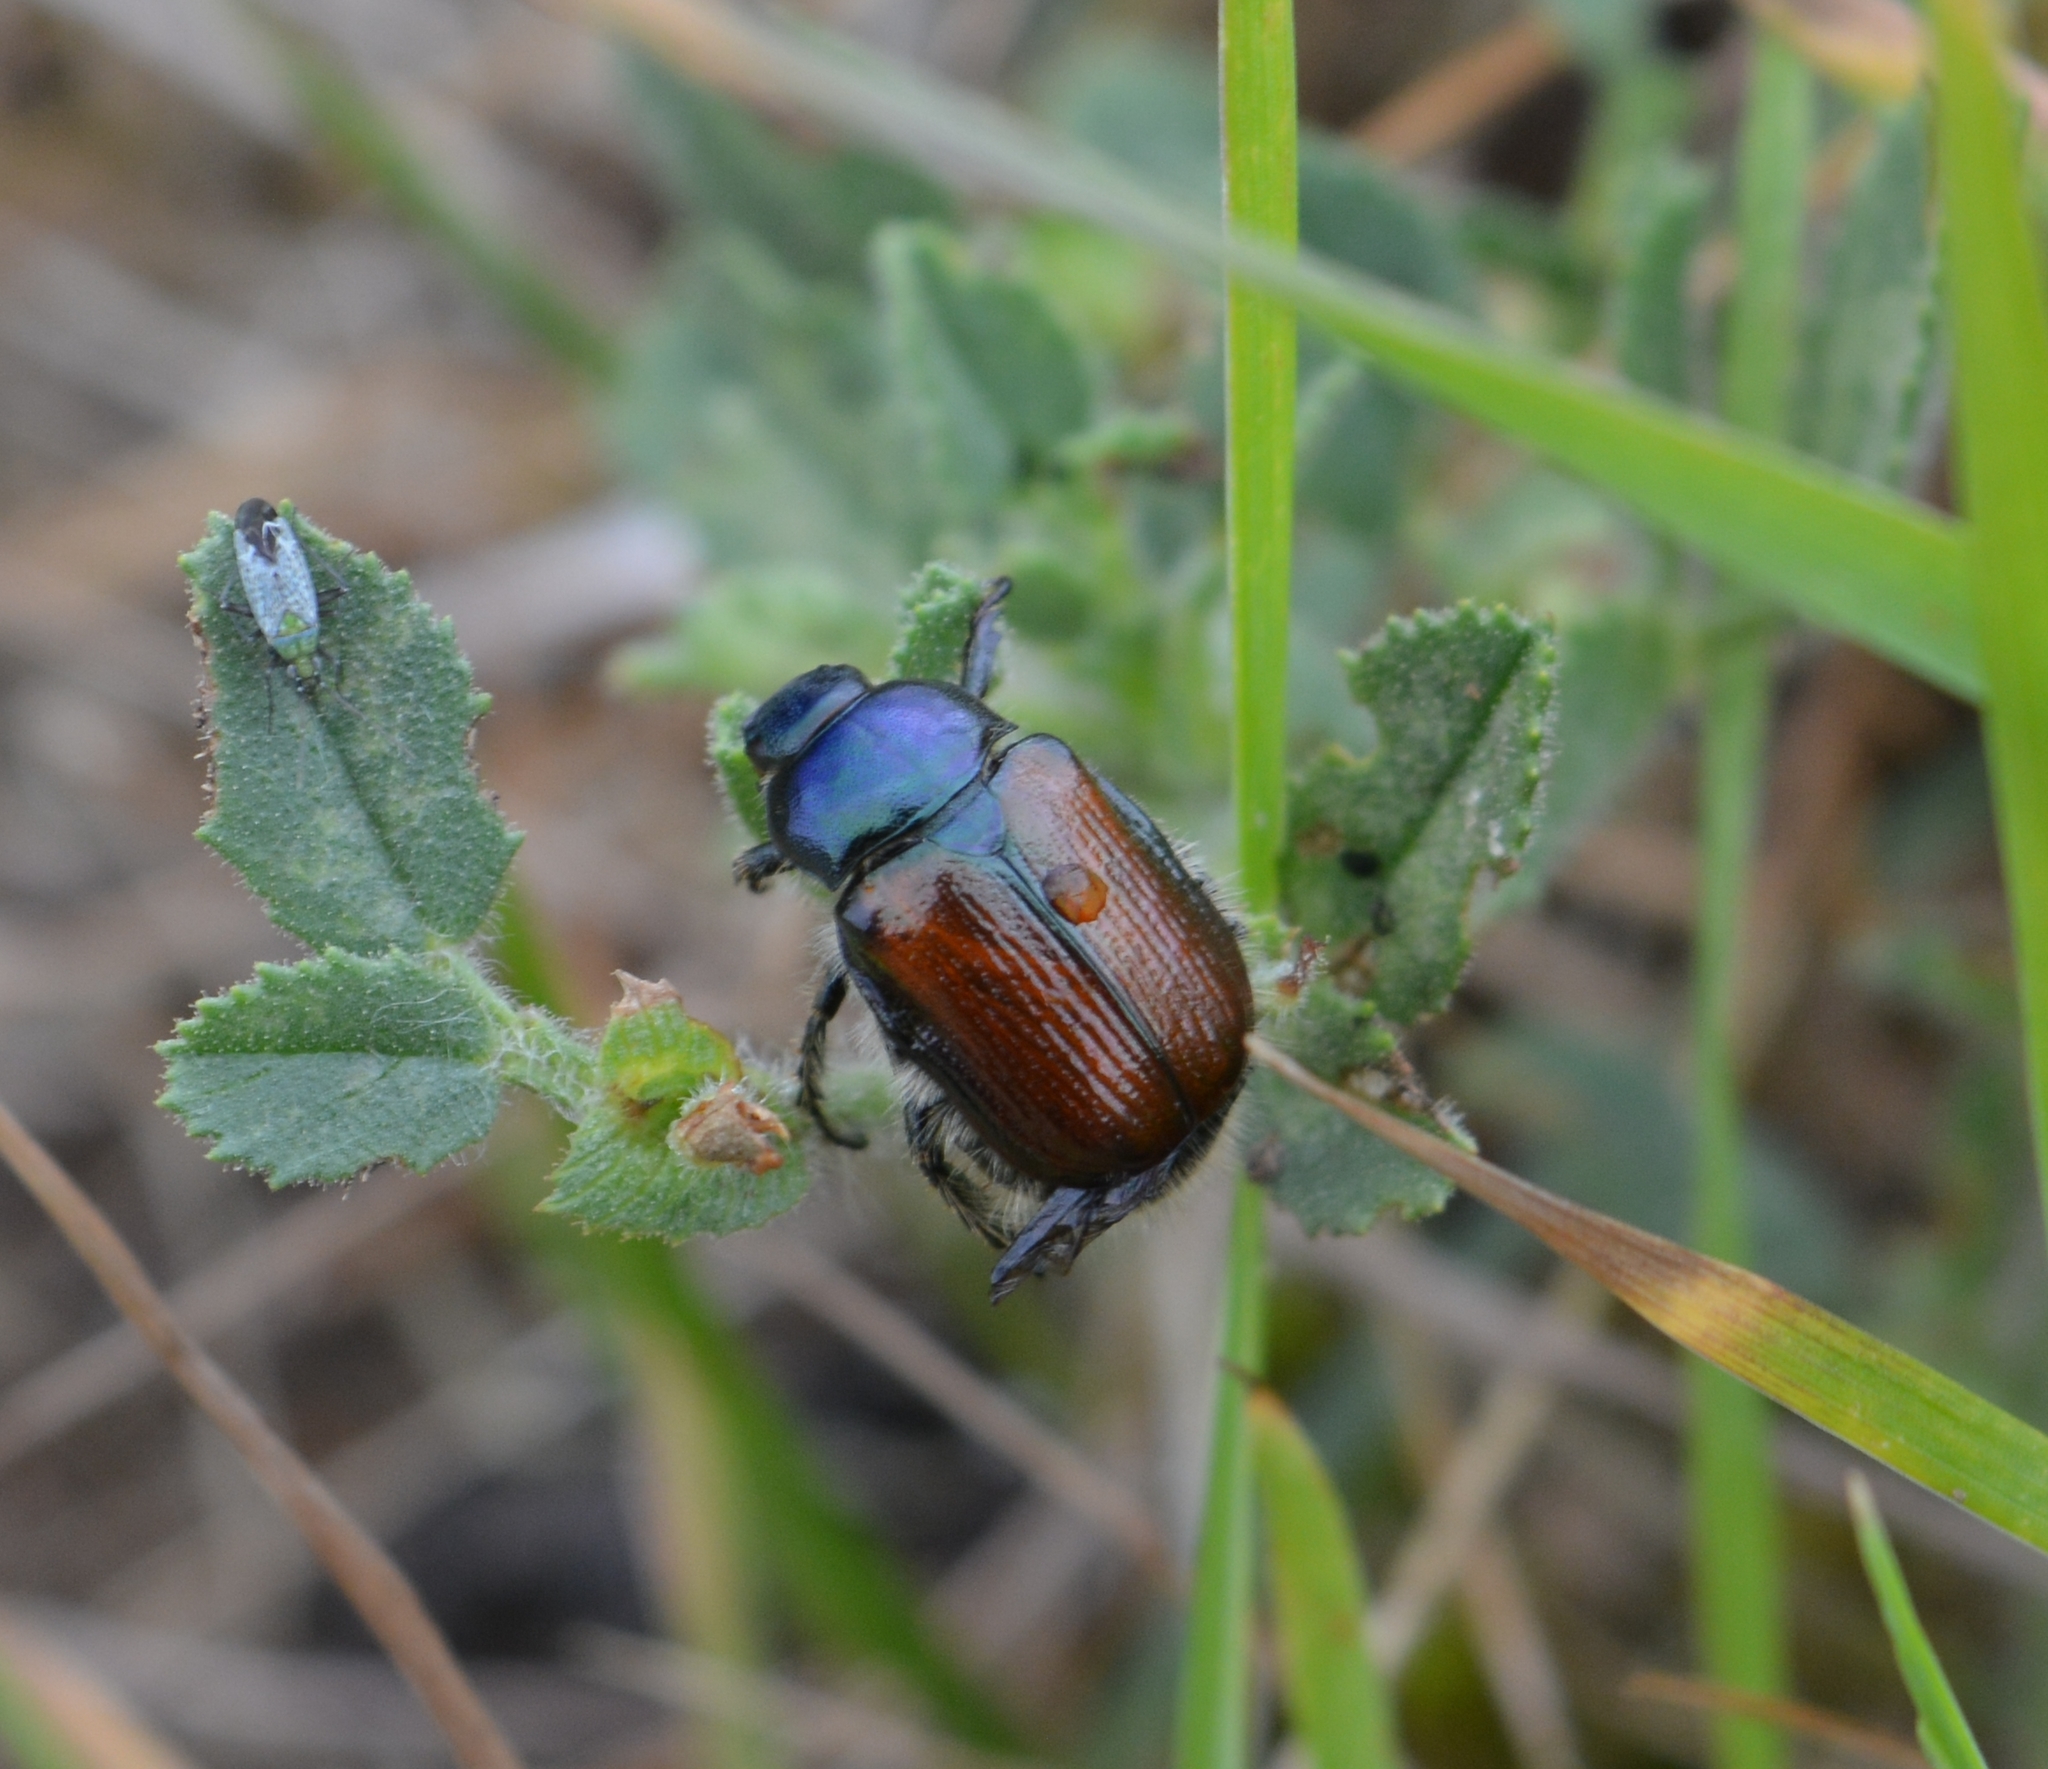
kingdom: Animalia
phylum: Arthropoda
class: Insecta
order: Coleoptera
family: Scarabaeidae
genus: Phyllopertha
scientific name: Phyllopertha horticola
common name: Garden chafer
